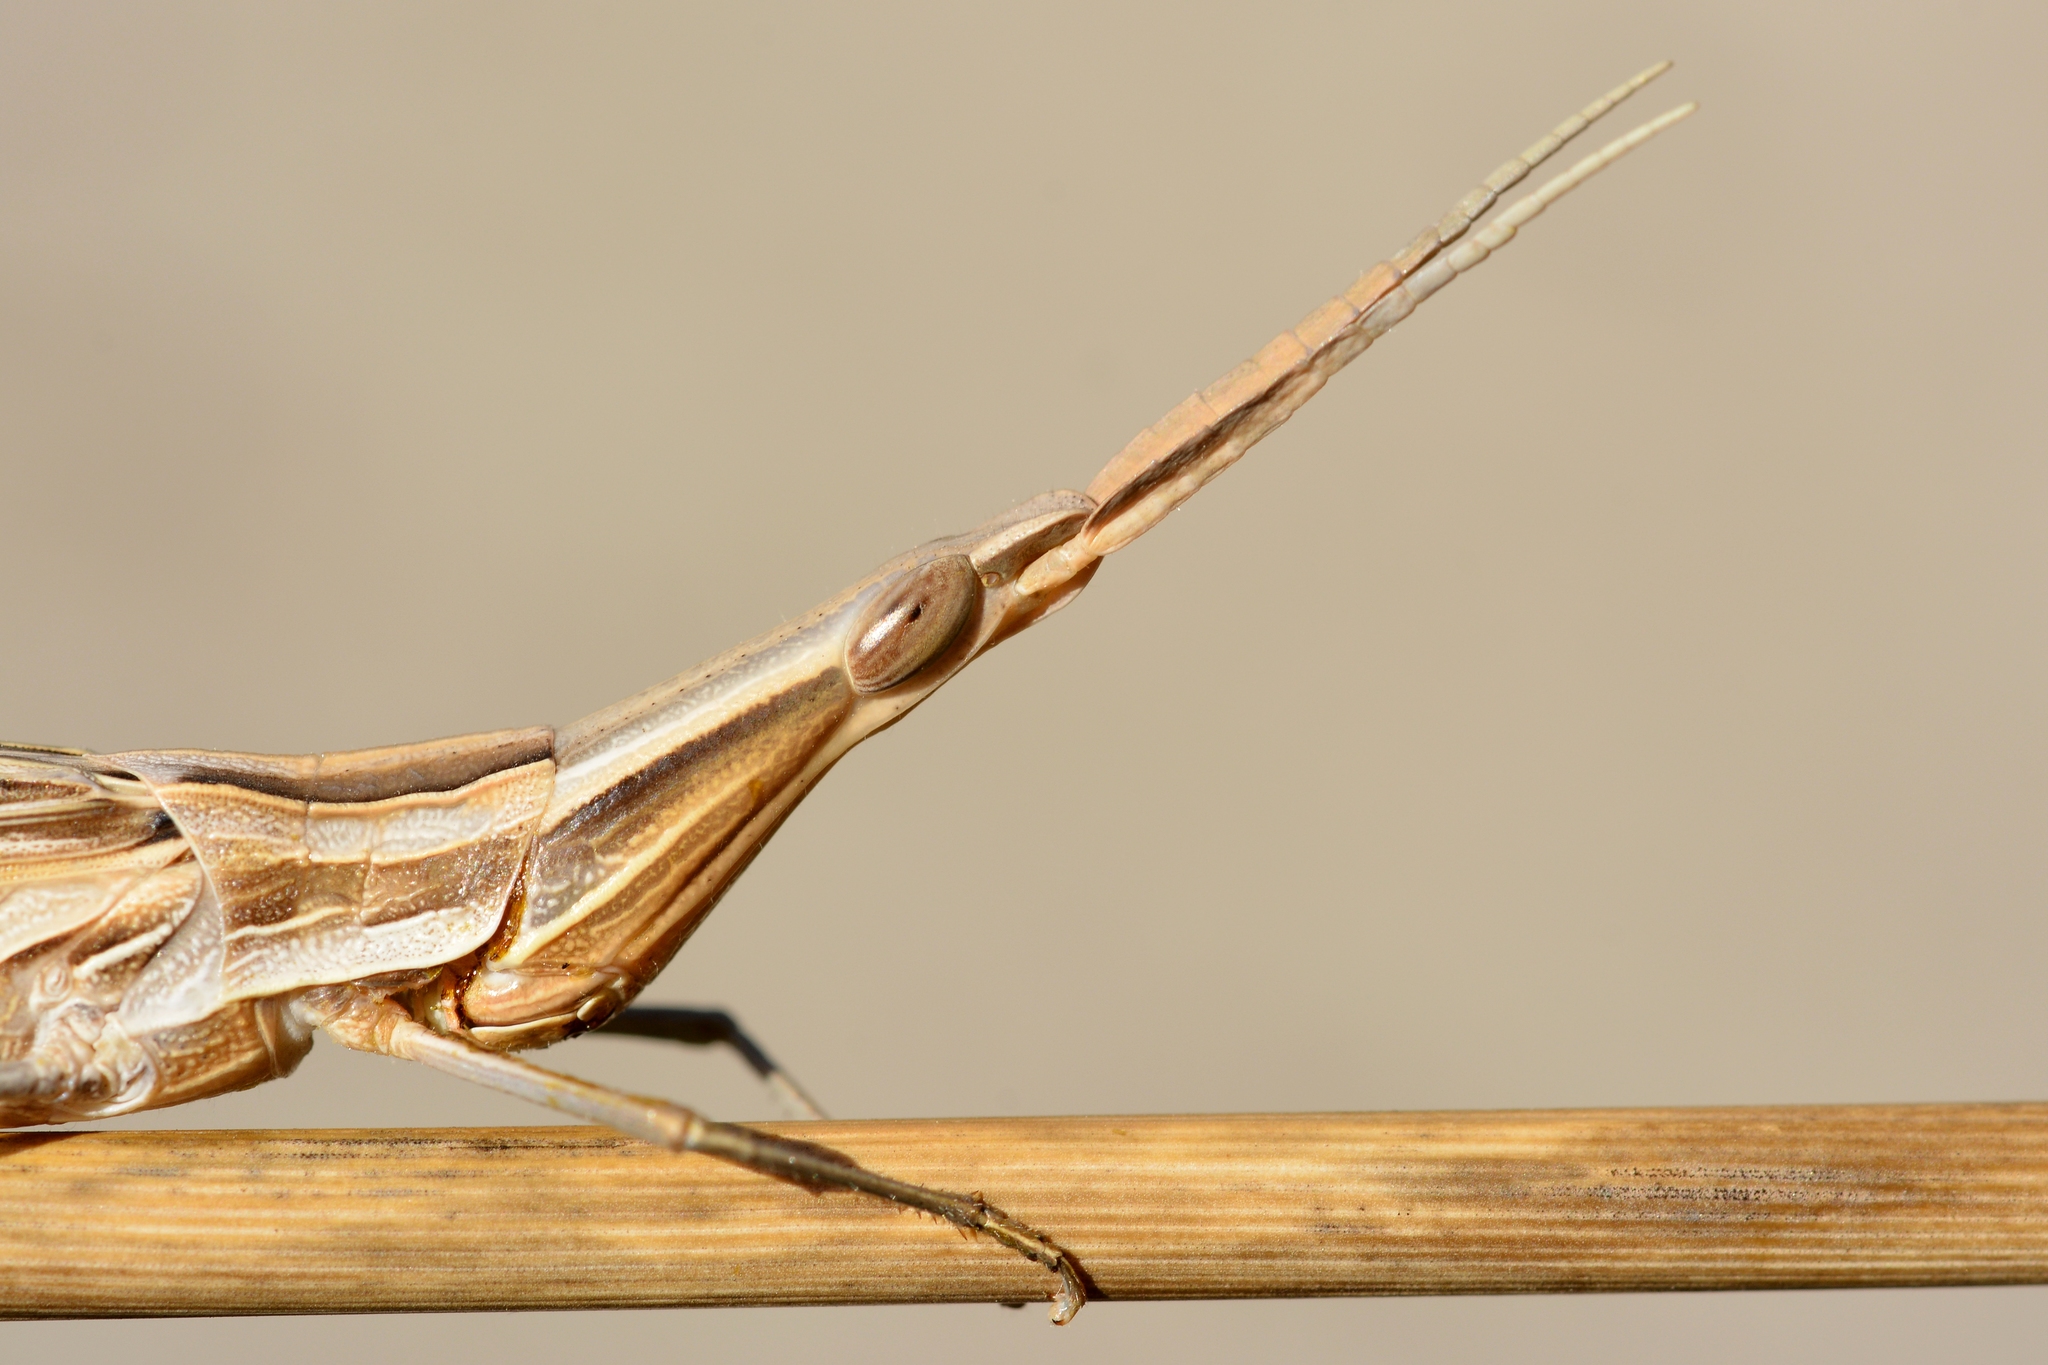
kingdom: Animalia
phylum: Arthropoda
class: Insecta
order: Orthoptera
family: Acrididae
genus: Acrida
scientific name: Acrida ungarica
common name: Common cone-headed grasshopper
